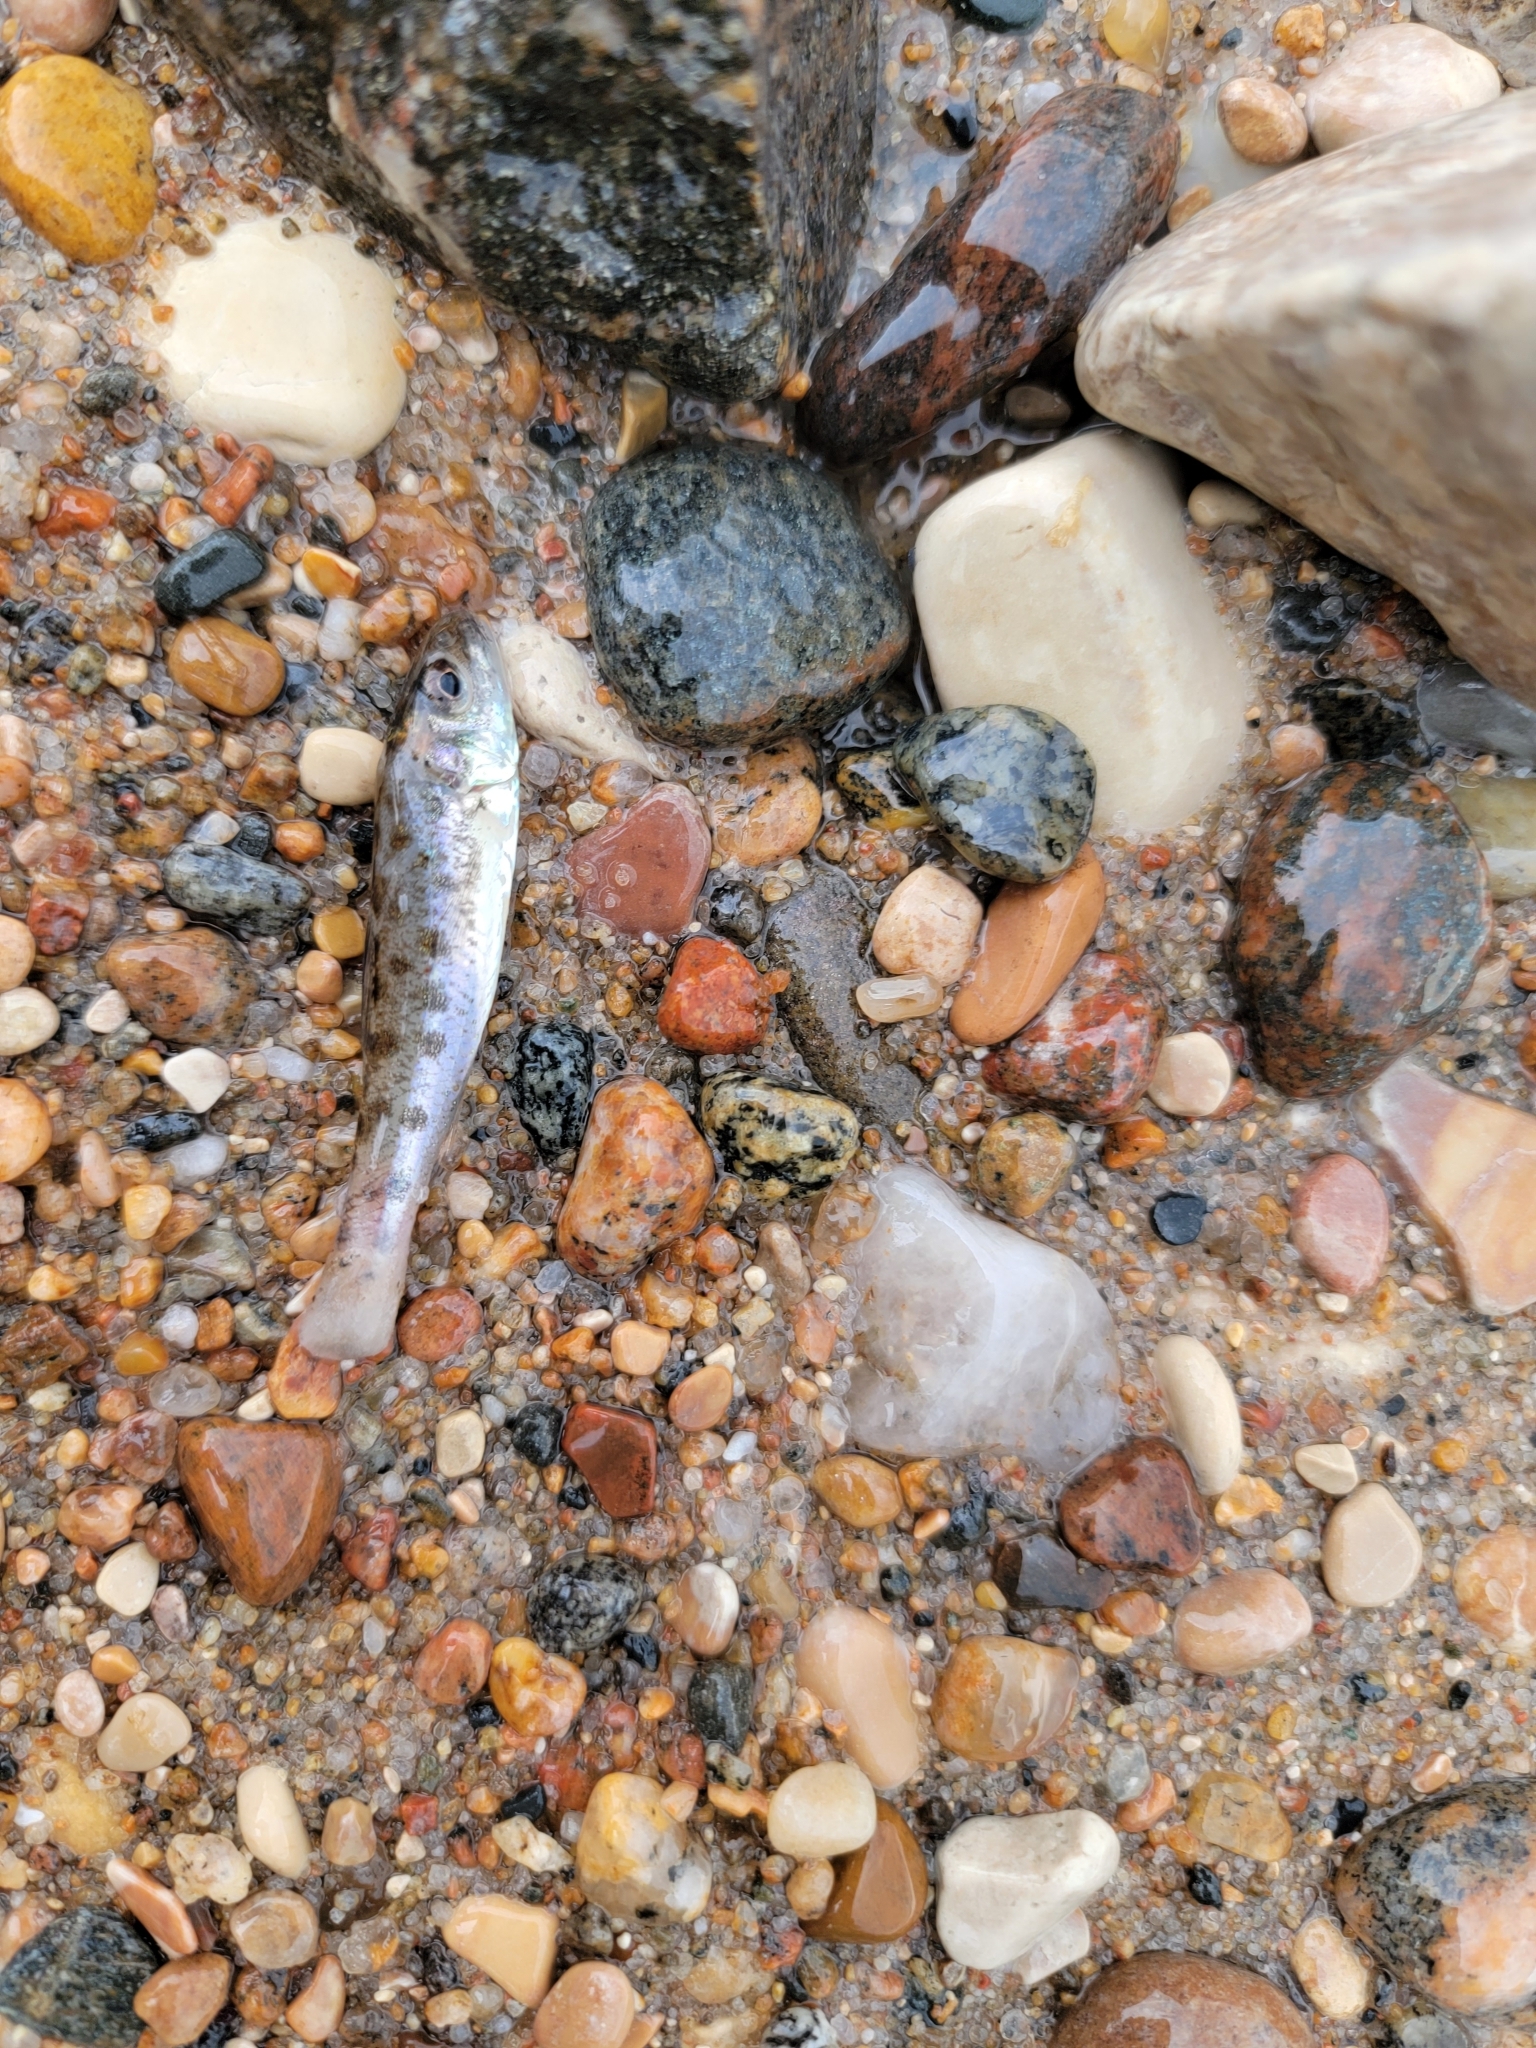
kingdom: Animalia
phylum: Chordata
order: Percopsiformes
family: Percopsidae
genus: Percopsis
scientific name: Percopsis omiscomaycus
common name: Trout-perch
